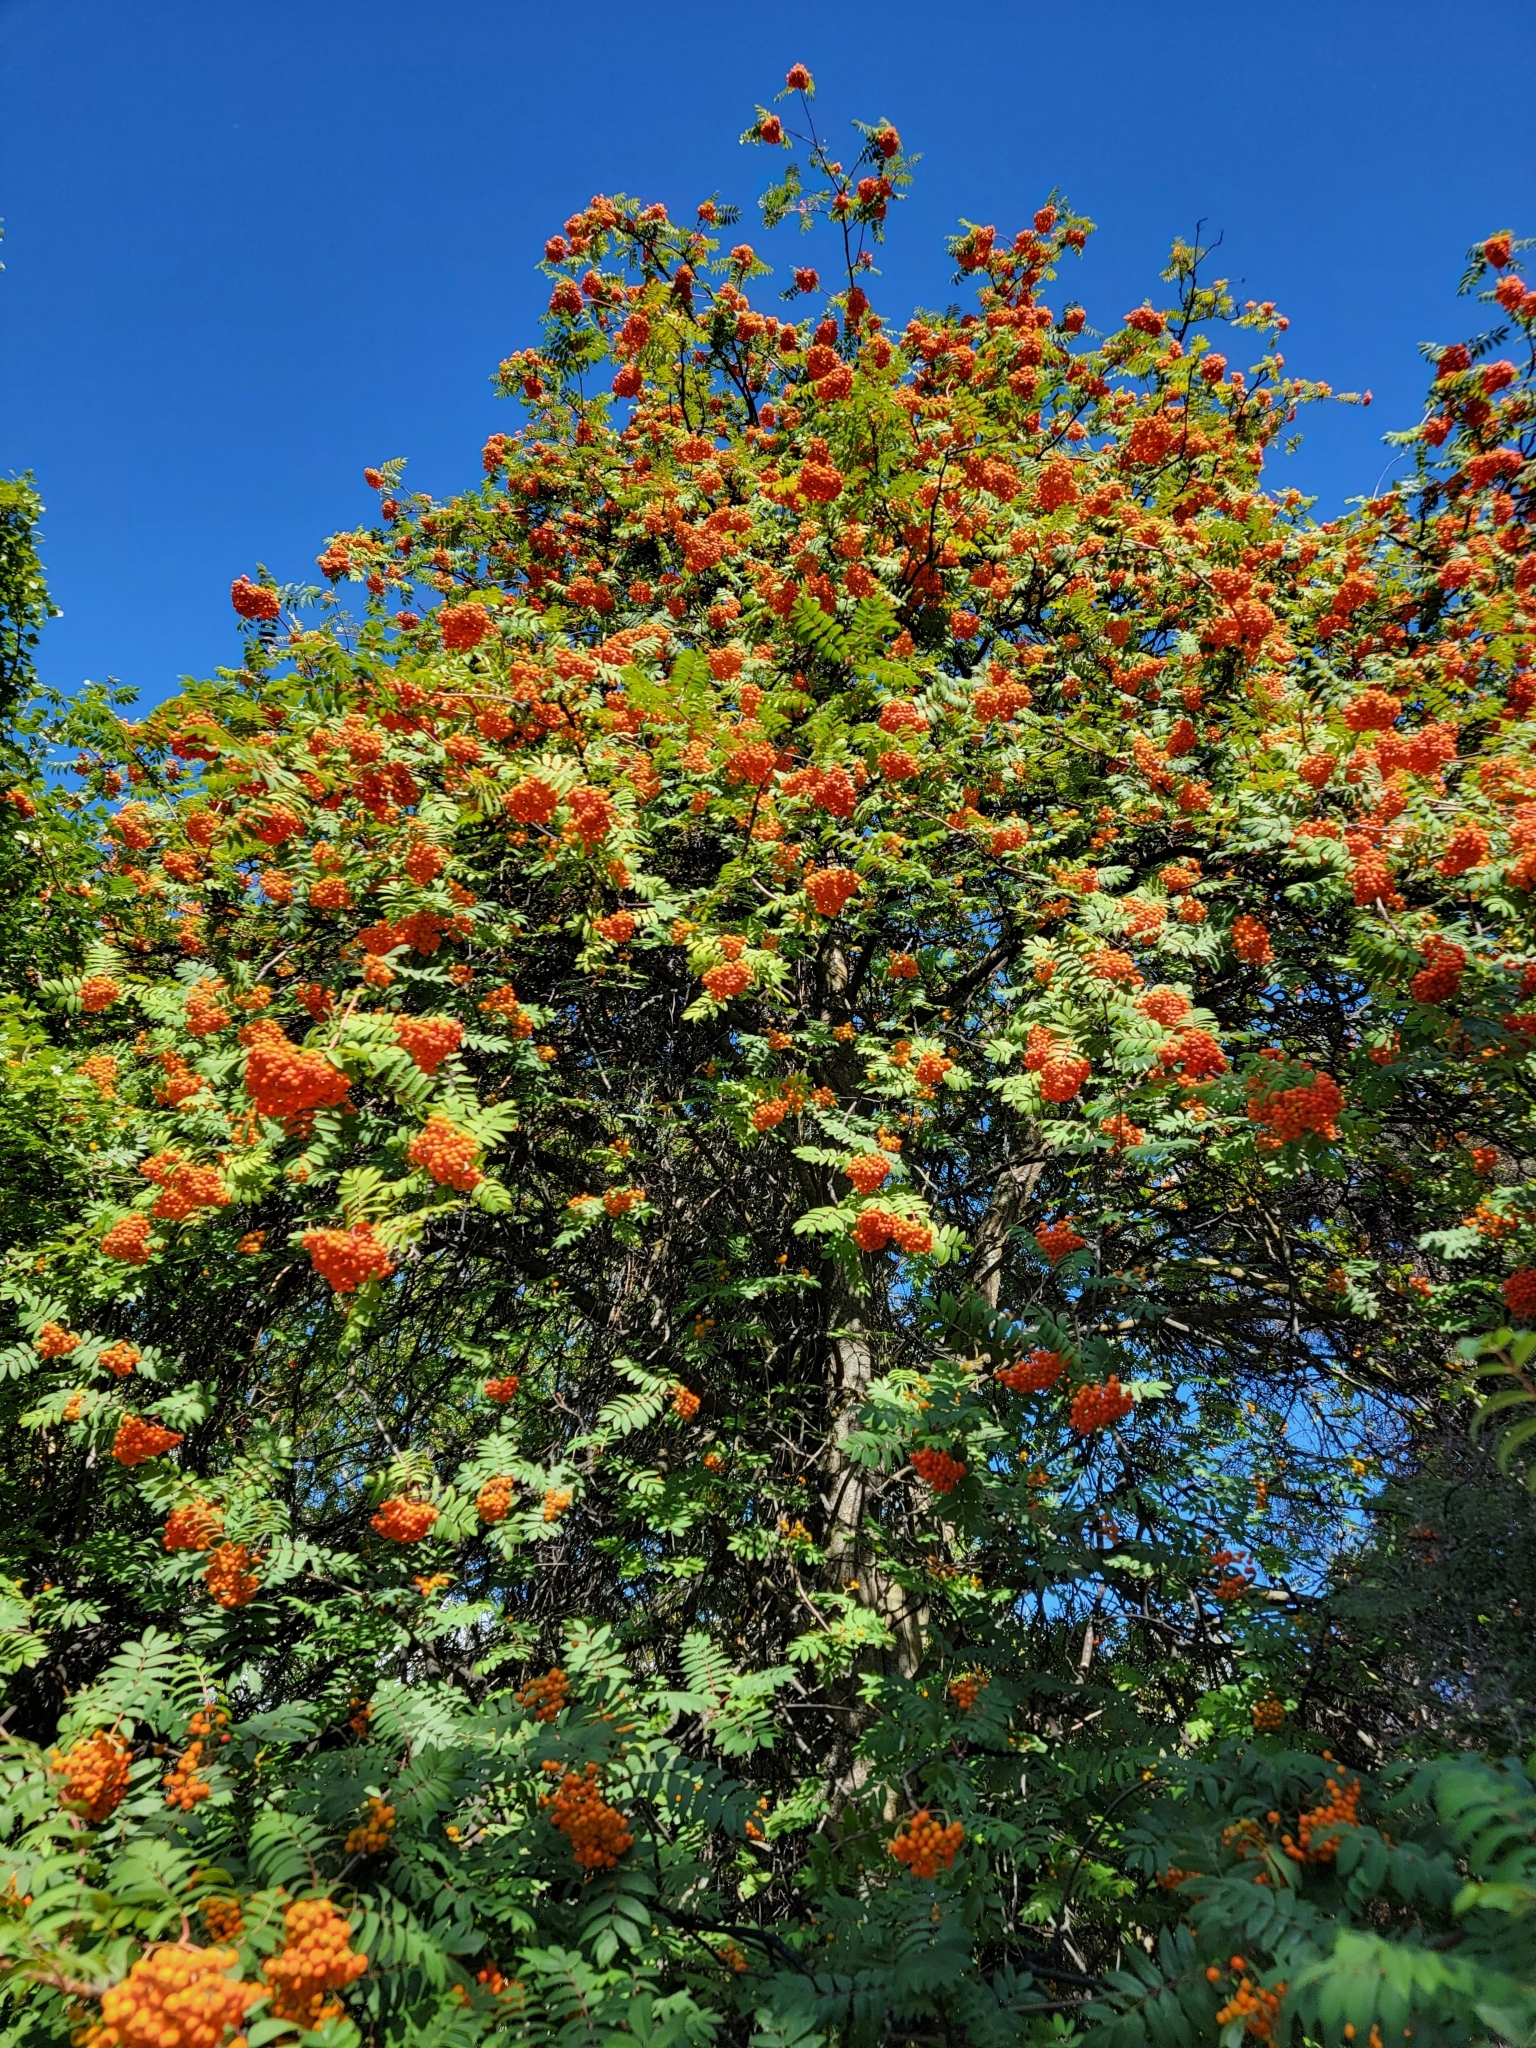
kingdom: Plantae
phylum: Tracheophyta
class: Magnoliopsida
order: Rosales
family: Rosaceae
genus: Sorbus
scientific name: Sorbus aucuparia
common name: Rowan
